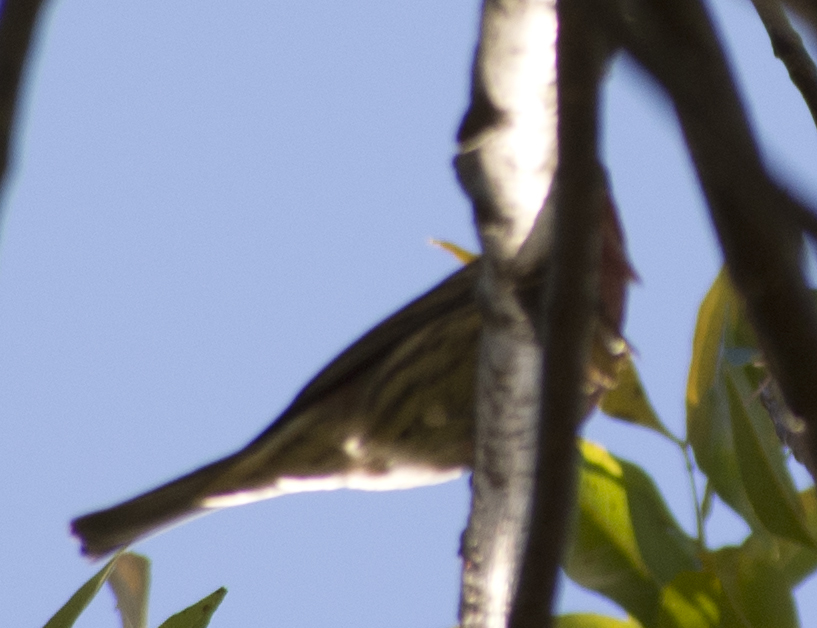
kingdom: Animalia
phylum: Chordata
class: Aves
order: Passeriformes
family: Fringillidae
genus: Haemorhous
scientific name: Haemorhous mexicanus
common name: House finch
